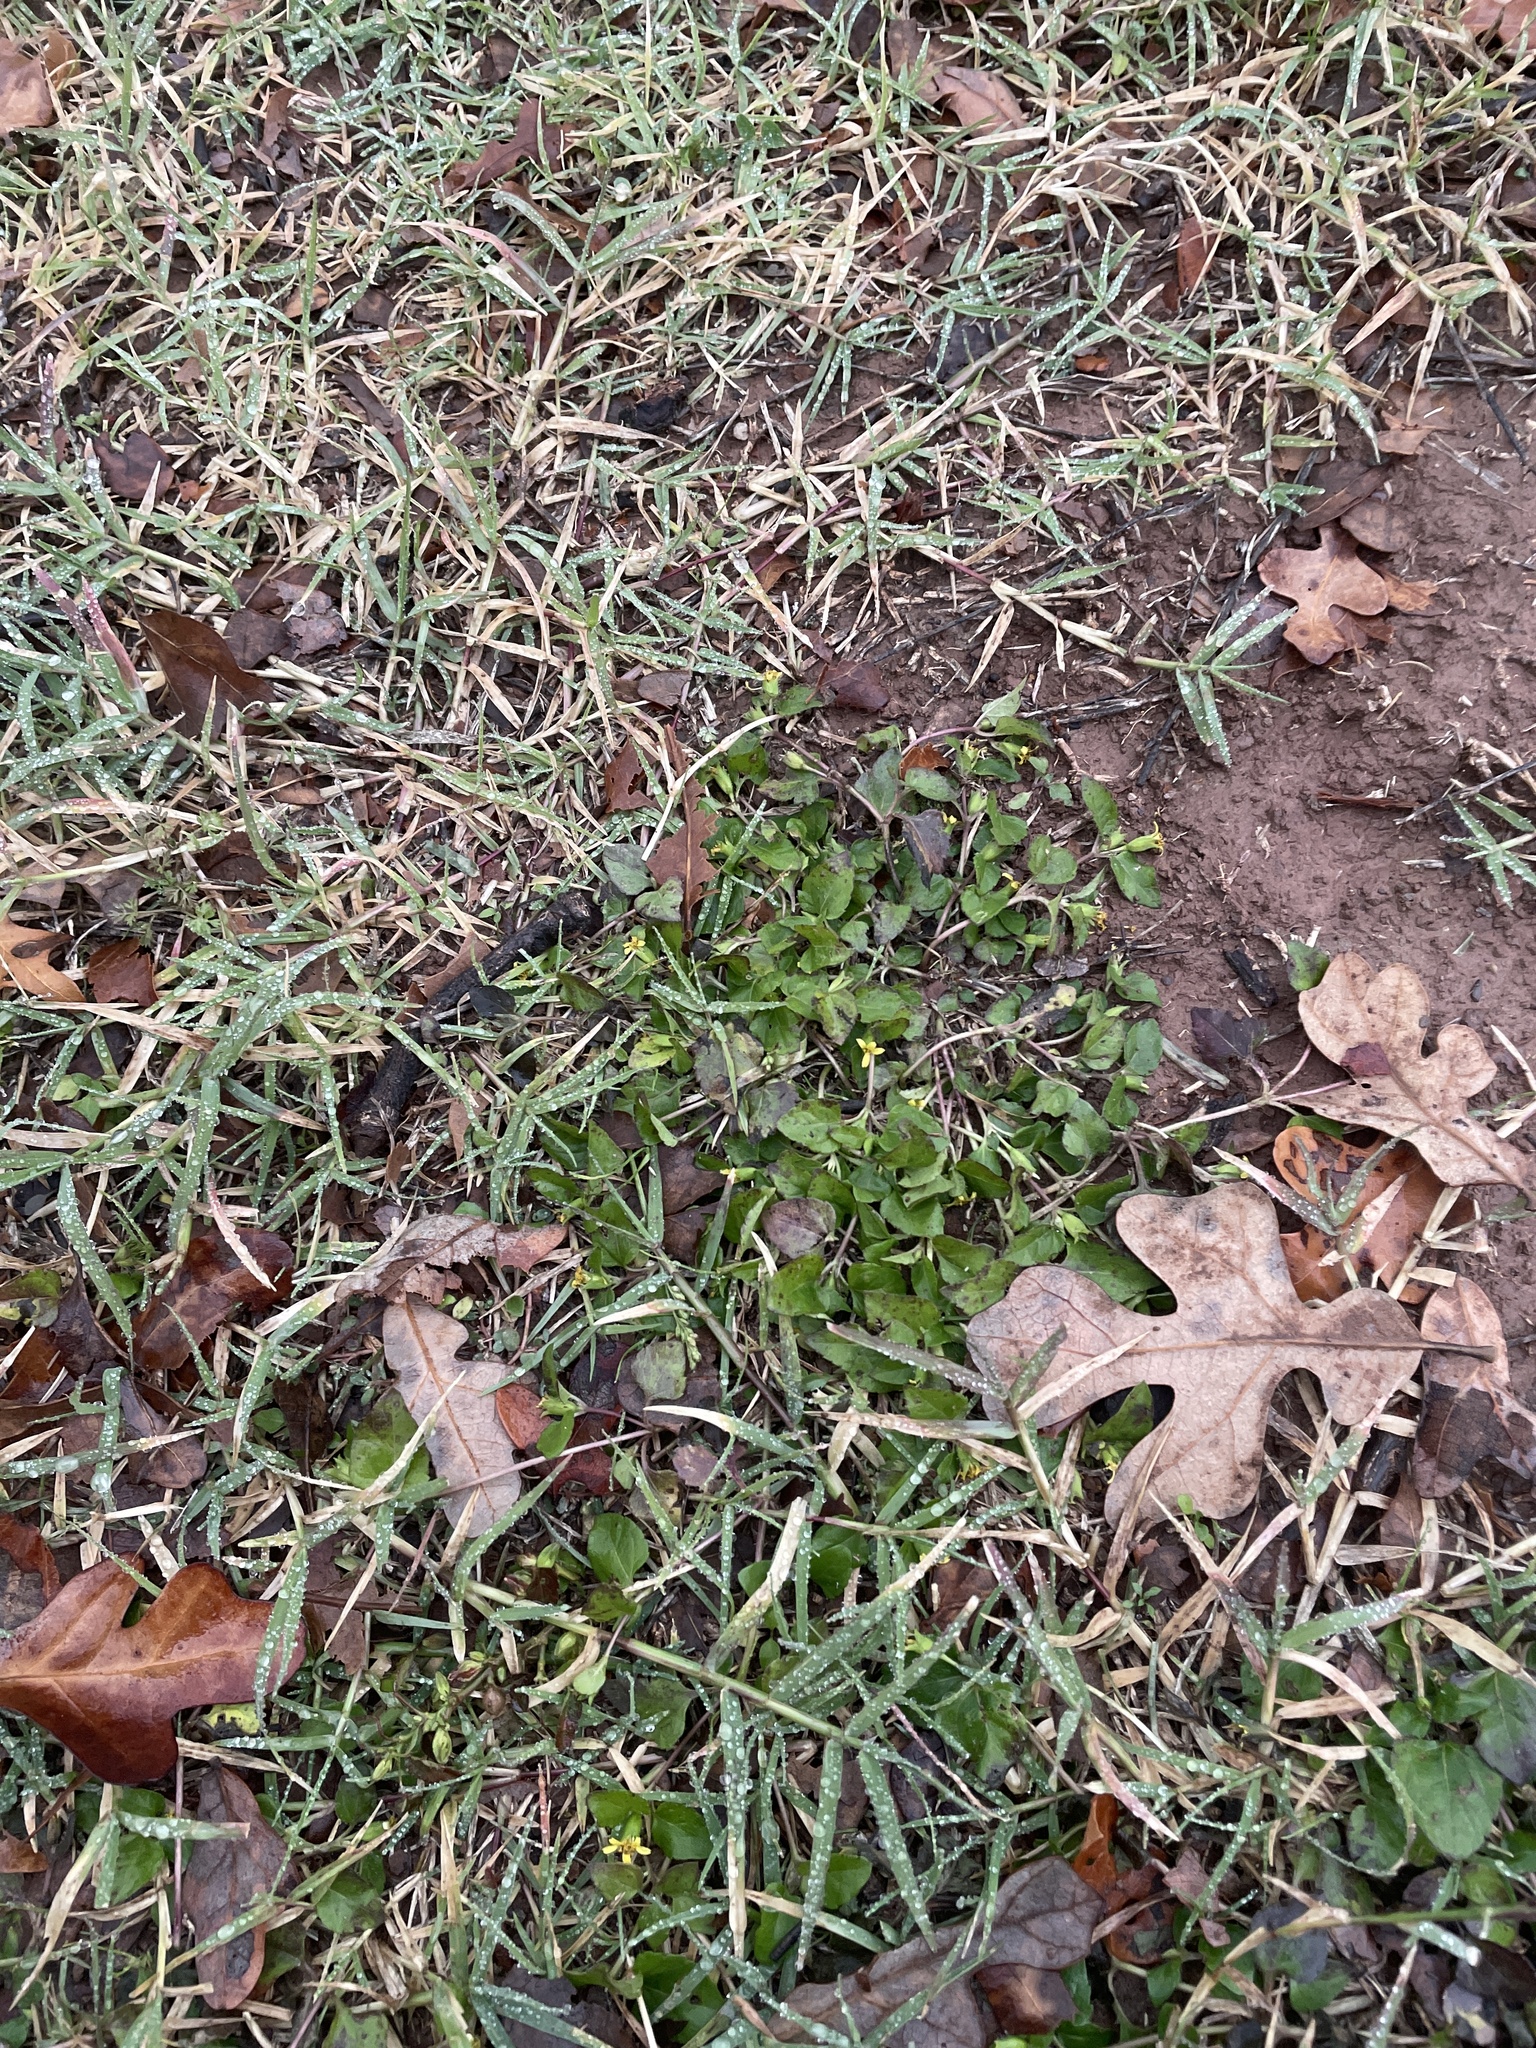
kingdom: Plantae
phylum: Tracheophyta
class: Magnoliopsida
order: Asterales
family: Asteraceae
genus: Calyptocarpus
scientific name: Calyptocarpus vialis
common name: Straggler daisy
